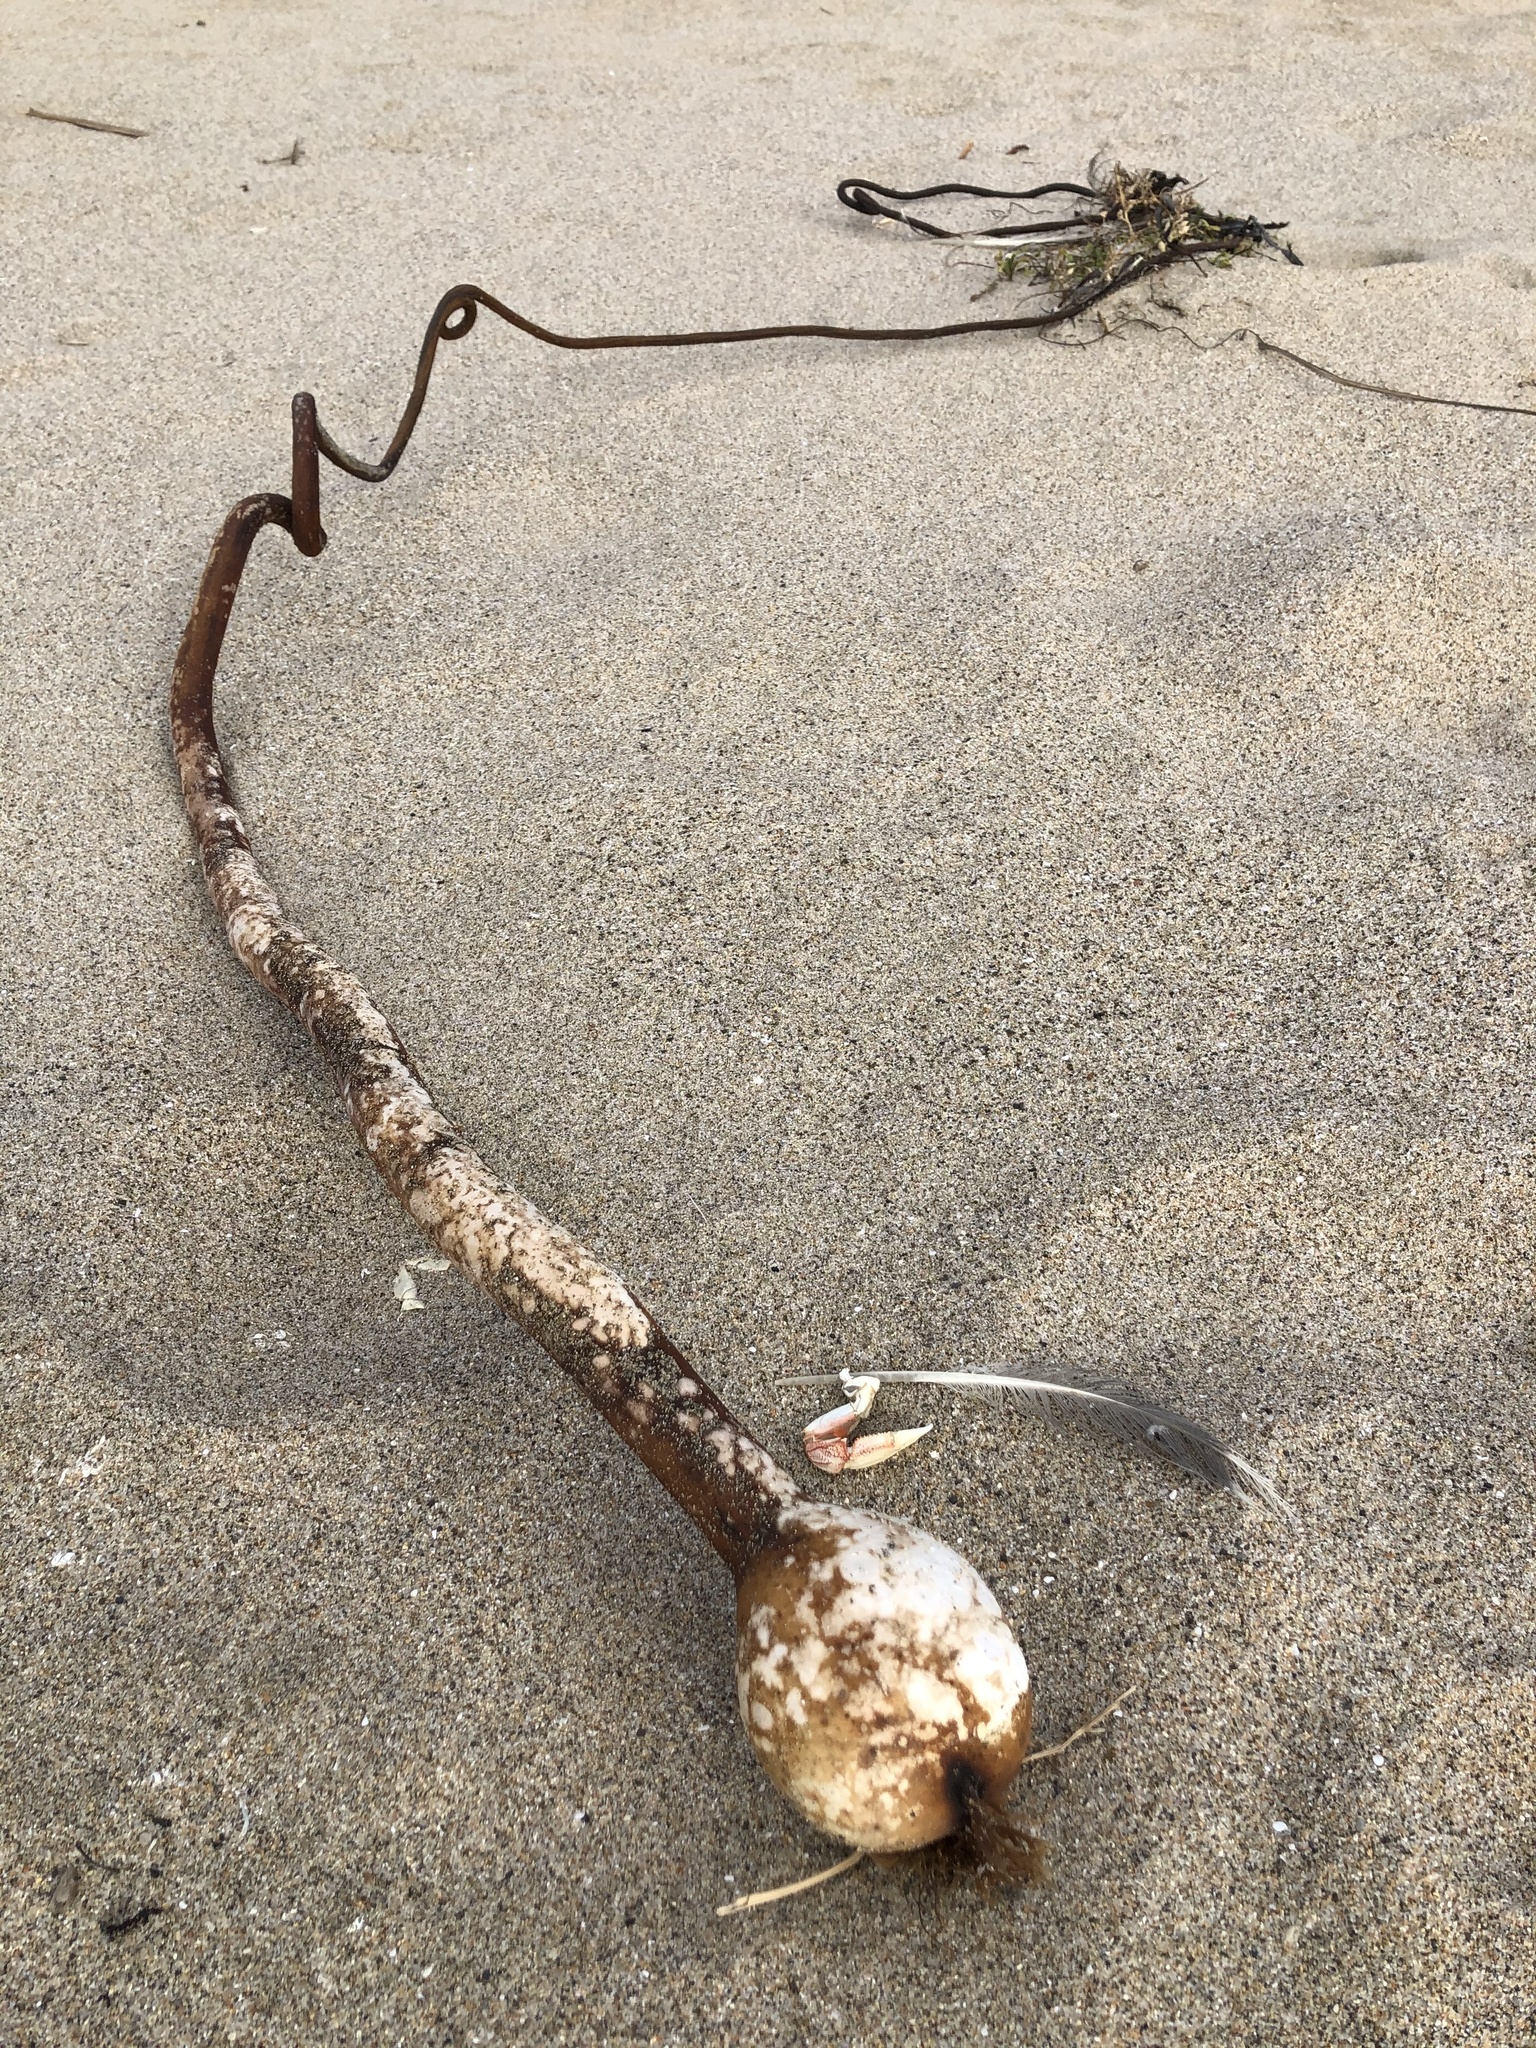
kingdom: Chromista
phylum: Ochrophyta
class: Phaeophyceae
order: Laminariales
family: Laminariaceae
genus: Nereocystis
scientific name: Nereocystis luetkeana
